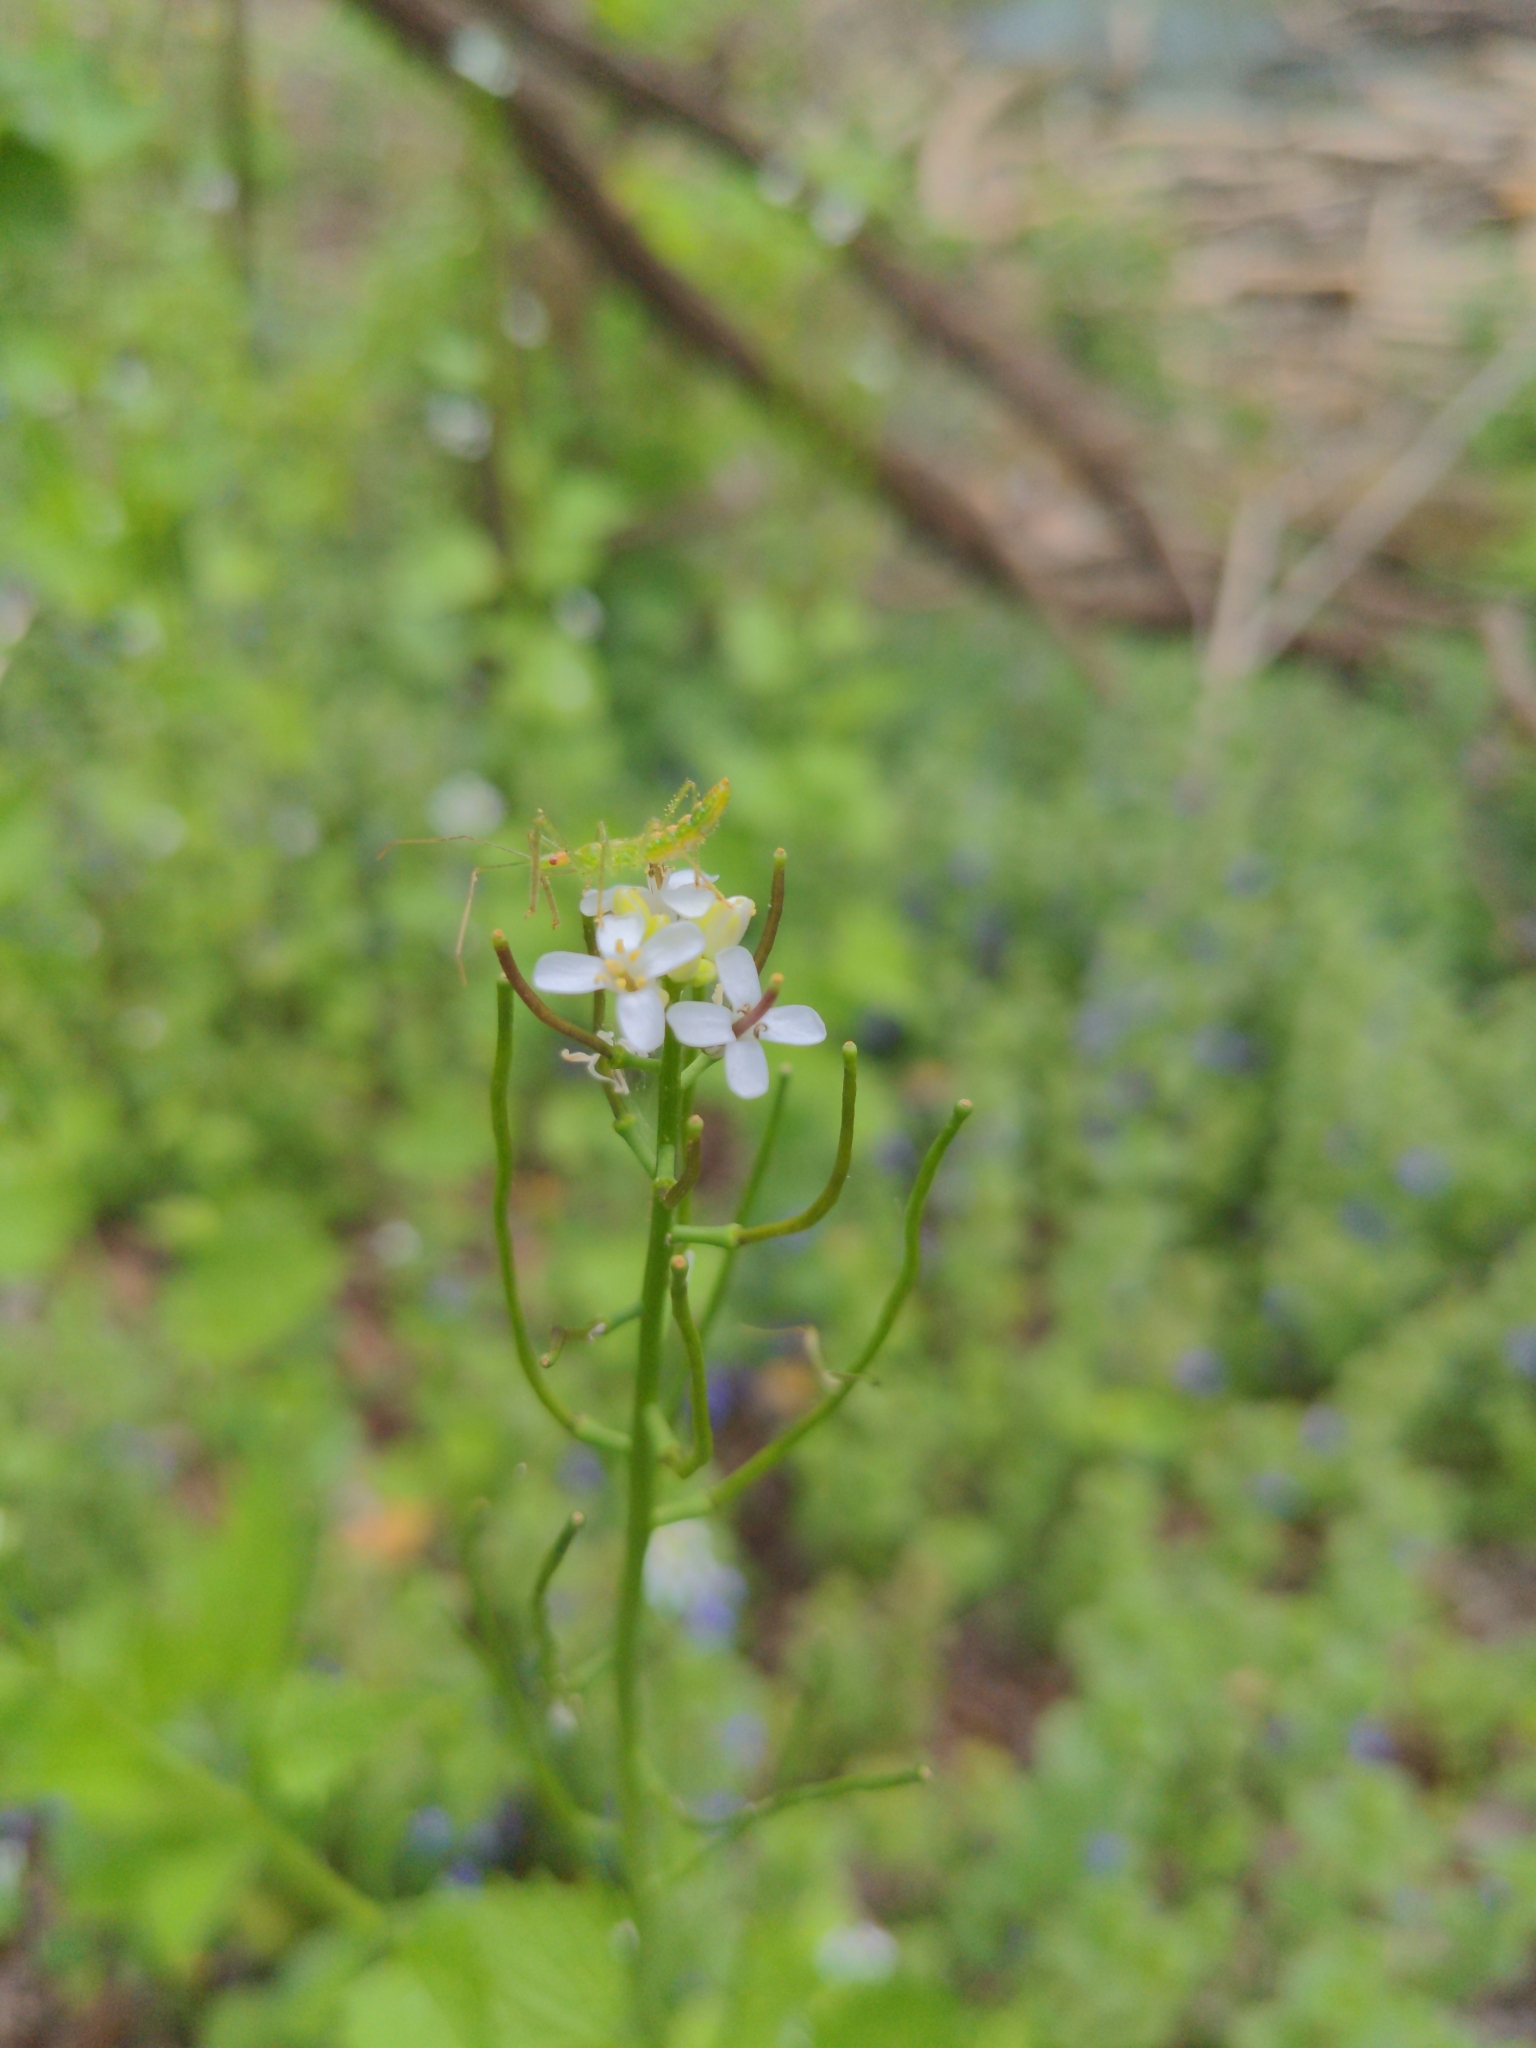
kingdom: Plantae
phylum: Tracheophyta
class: Magnoliopsida
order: Brassicales
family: Brassicaceae
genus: Alliaria
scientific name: Alliaria petiolata
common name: Garlic mustard
